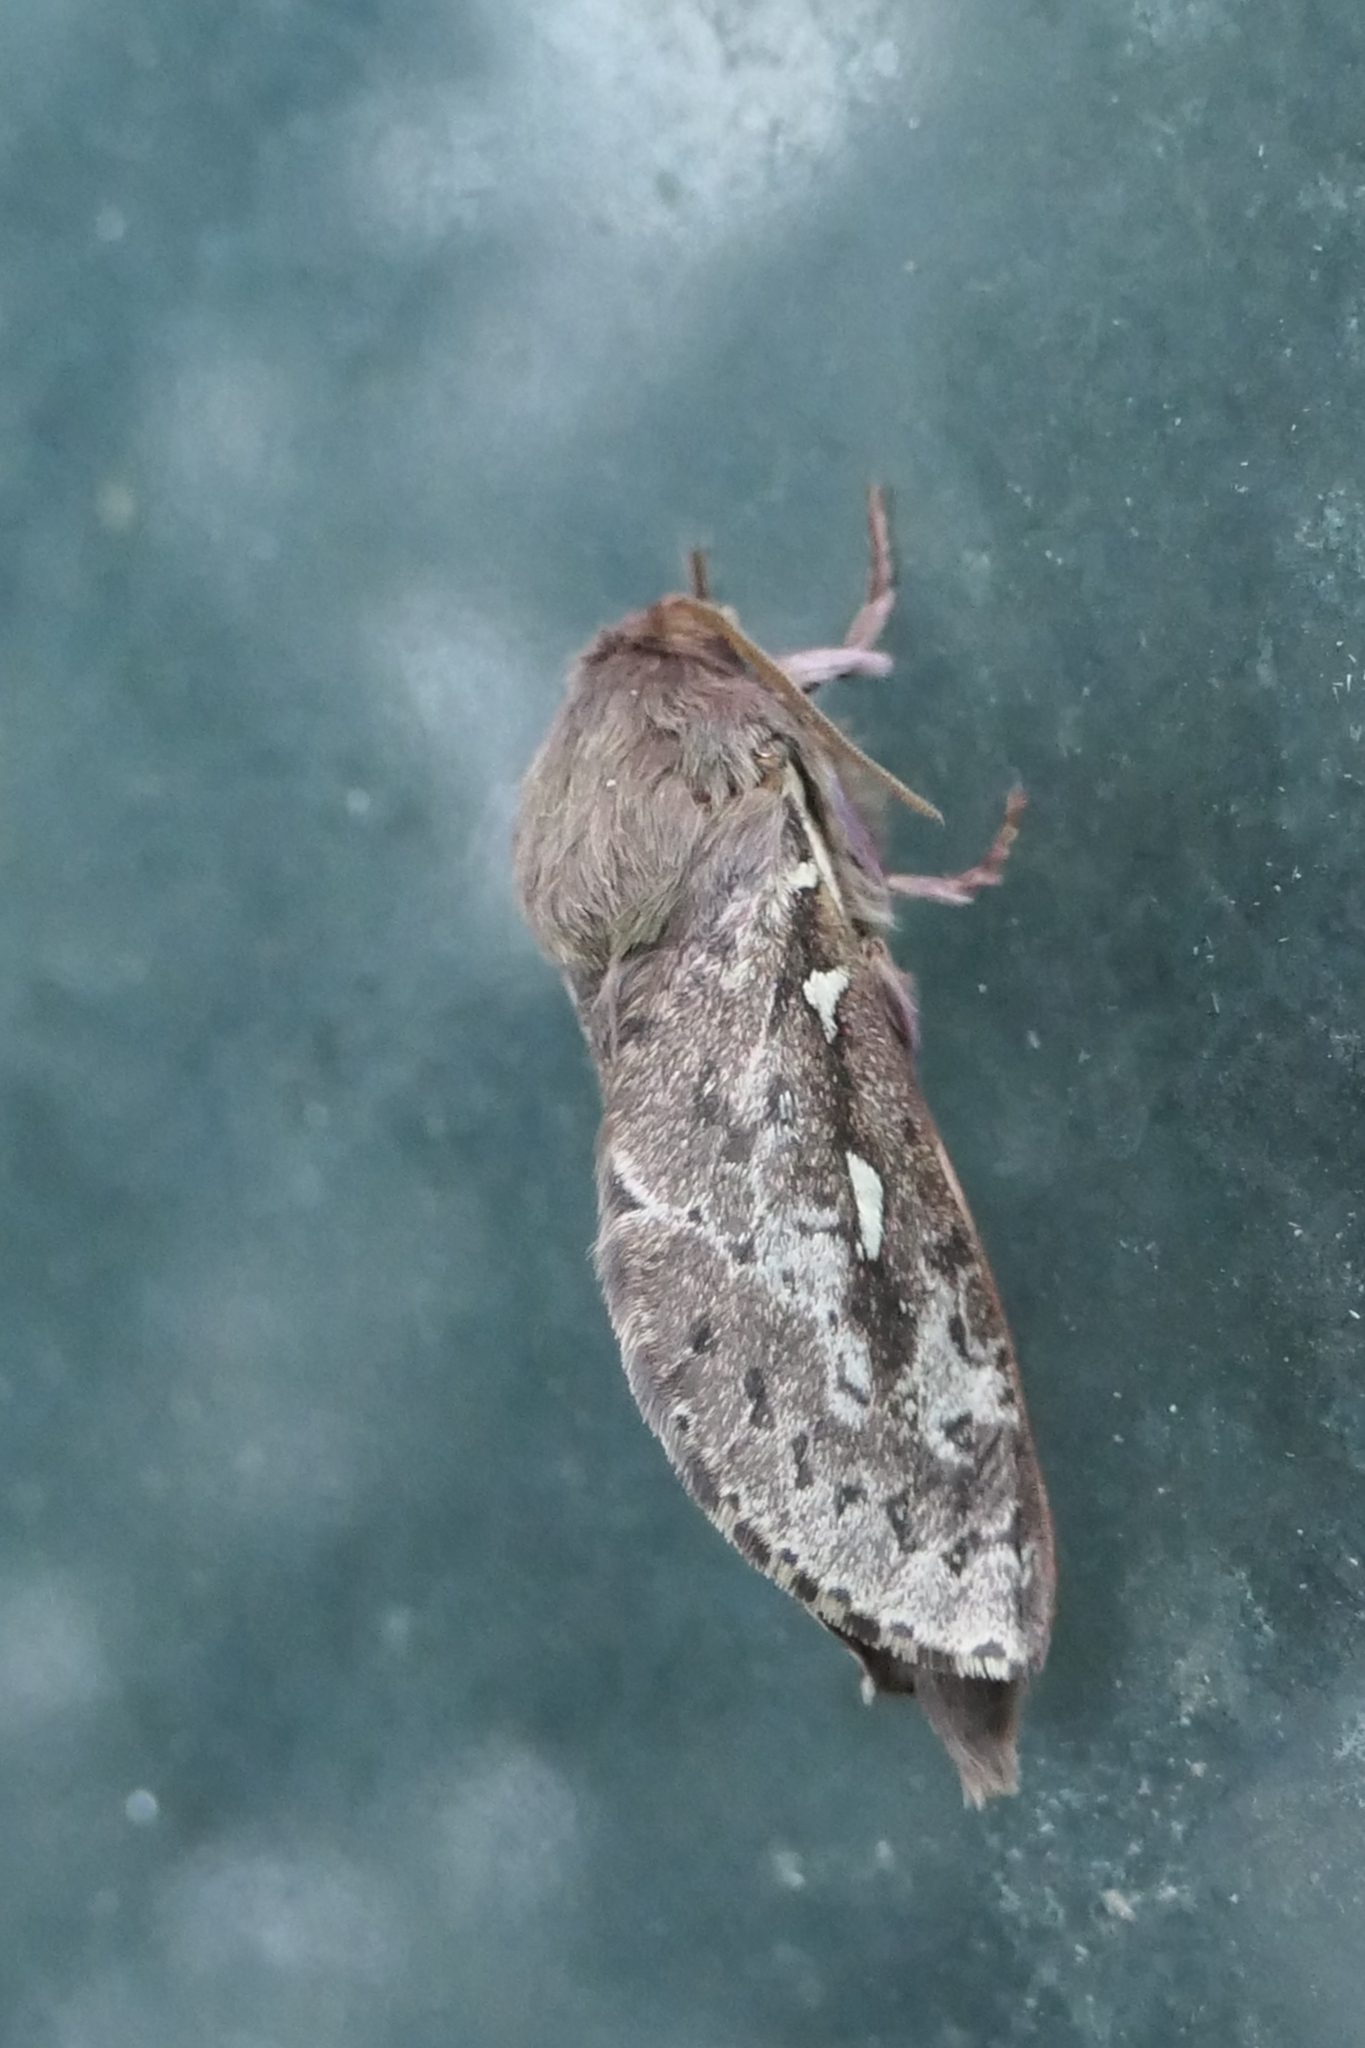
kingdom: Animalia
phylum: Arthropoda
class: Insecta
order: Lepidoptera
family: Hepialidae
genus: Wiseana
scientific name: Wiseana cervinata
